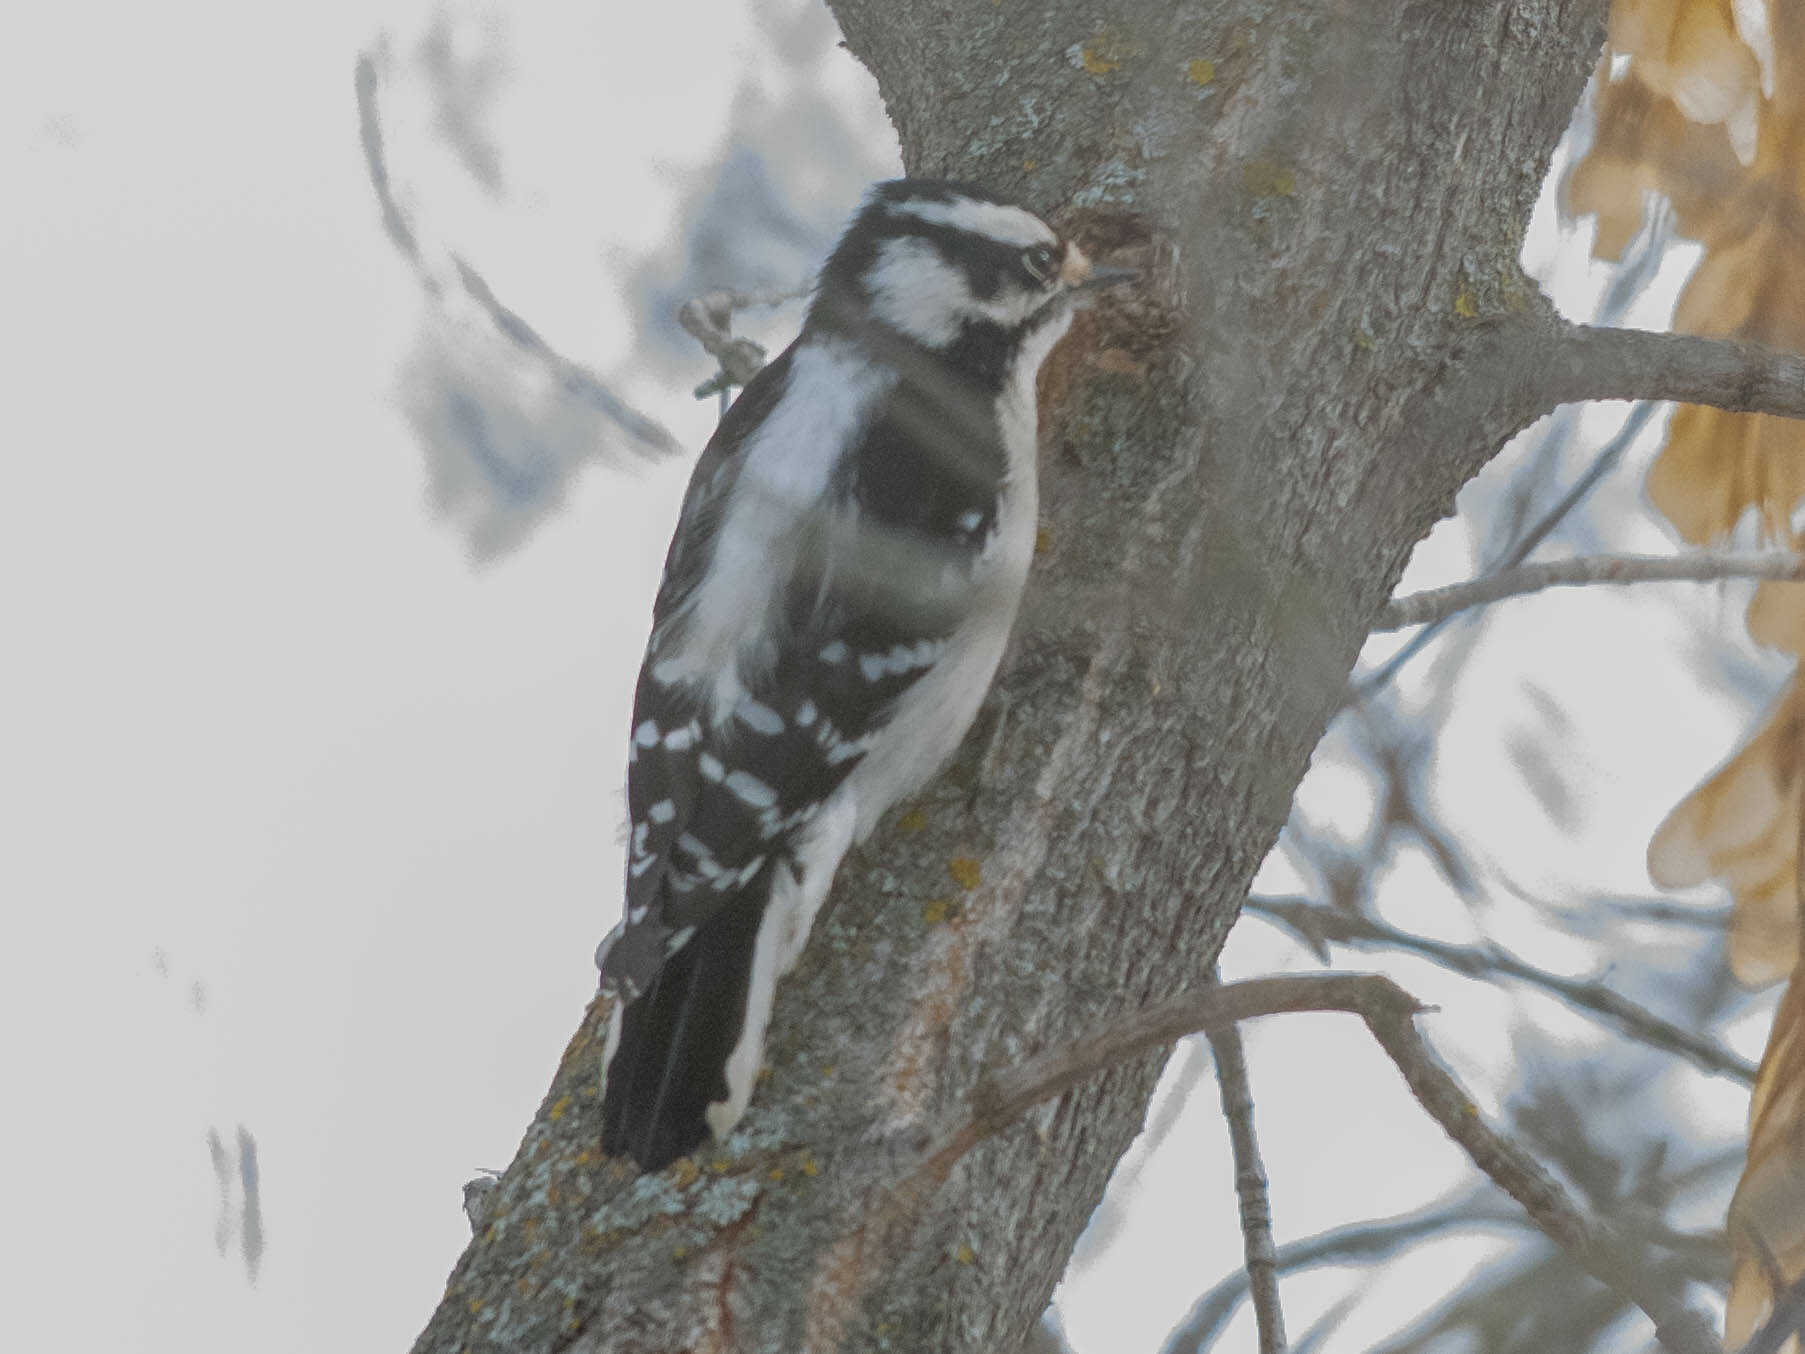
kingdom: Animalia
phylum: Chordata
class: Aves
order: Piciformes
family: Picidae
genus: Dryobates
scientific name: Dryobates pubescens
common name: Downy woodpecker
